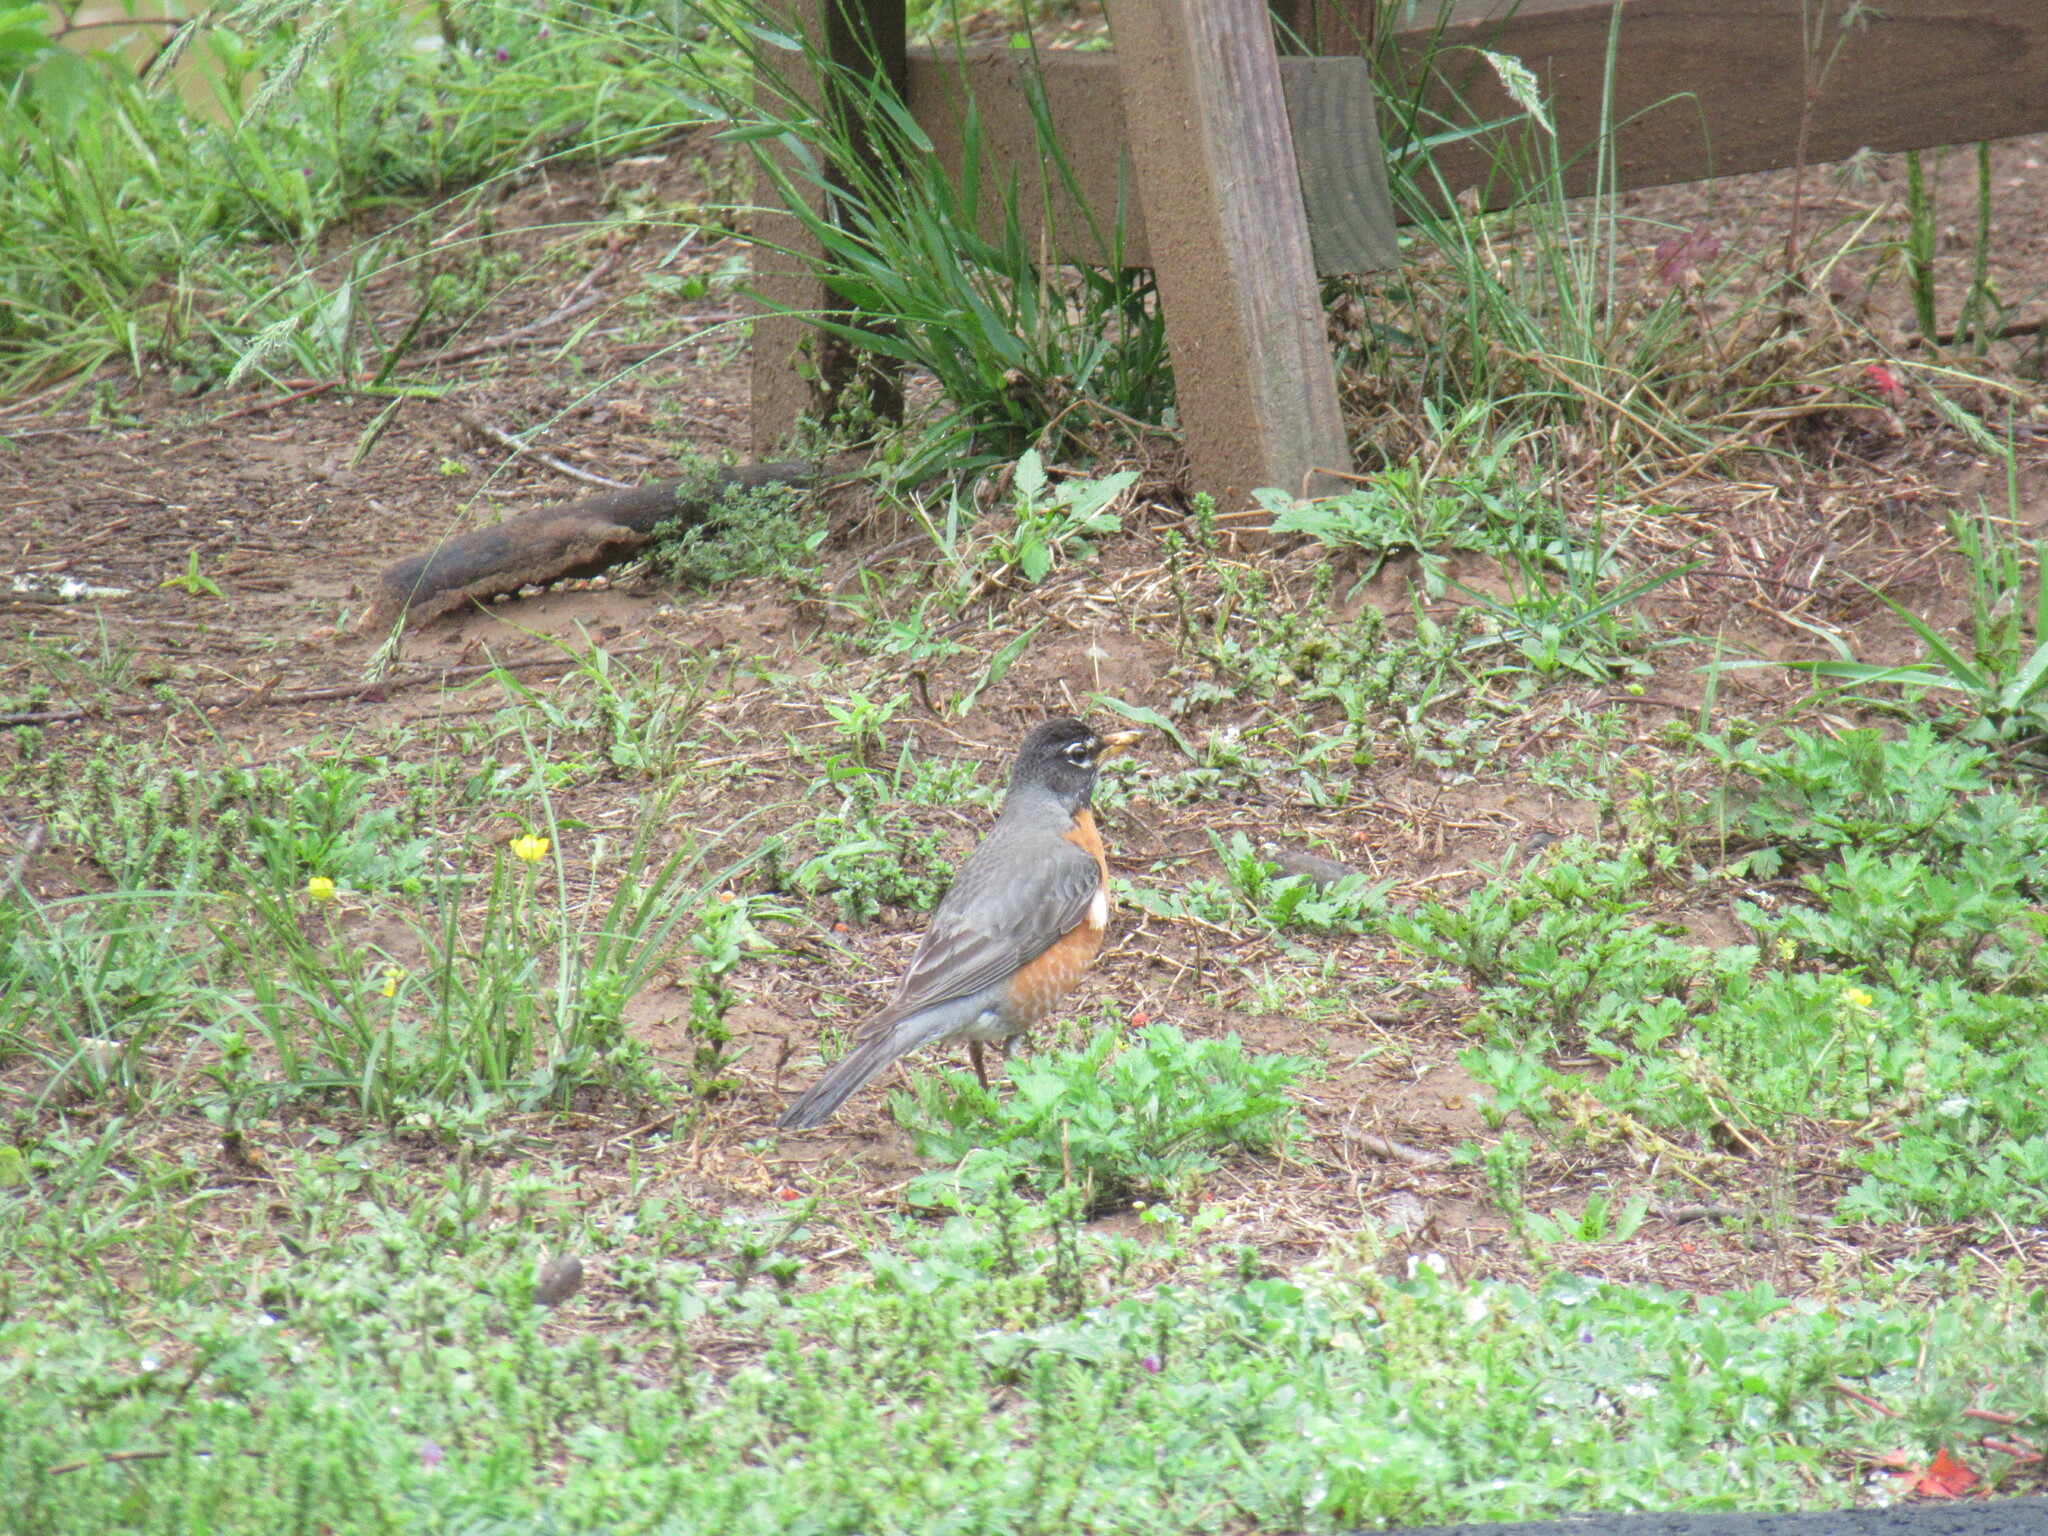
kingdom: Animalia
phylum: Chordata
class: Aves
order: Passeriformes
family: Turdidae
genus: Turdus
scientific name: Turdus migratorius
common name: American robin
